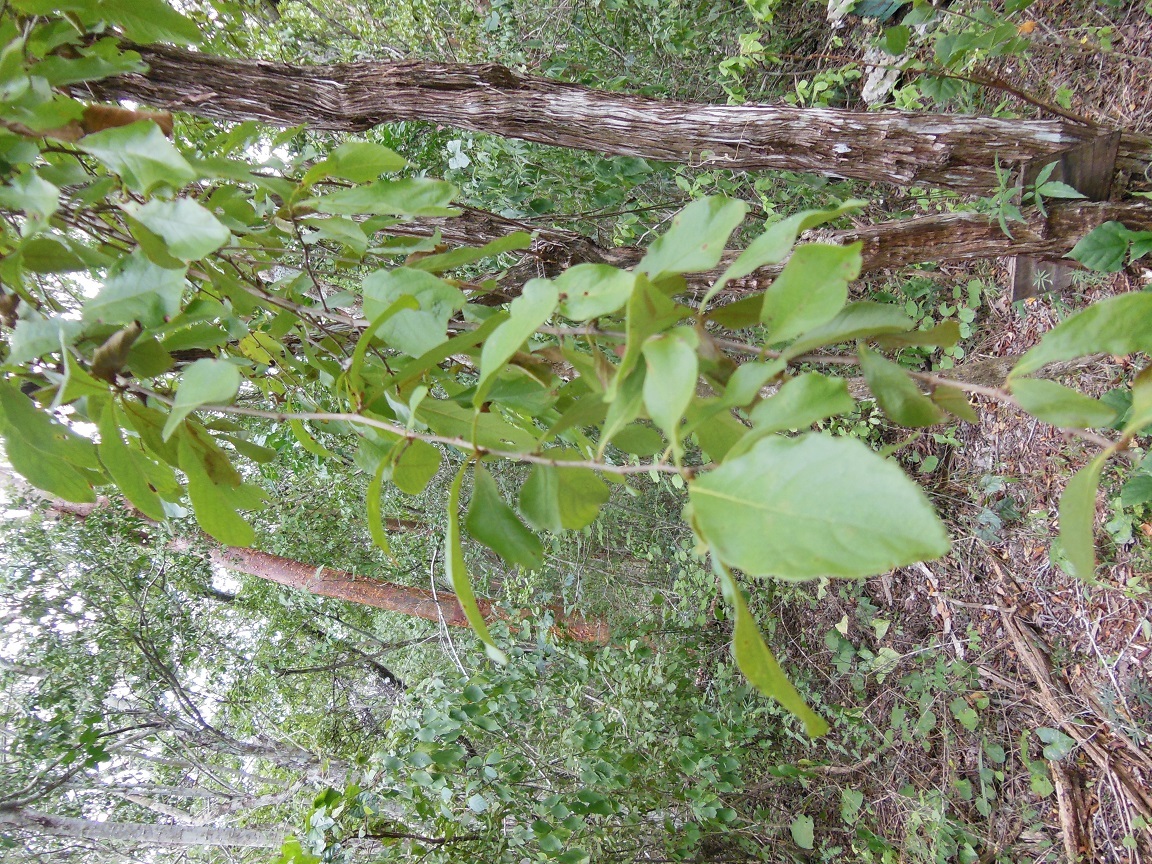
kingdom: Plantae
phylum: Tracheophyta
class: Magnoliopsida
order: Caryophyllales
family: Polygonaceae
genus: Gymnopodium
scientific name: Gymnopodium floribundum
